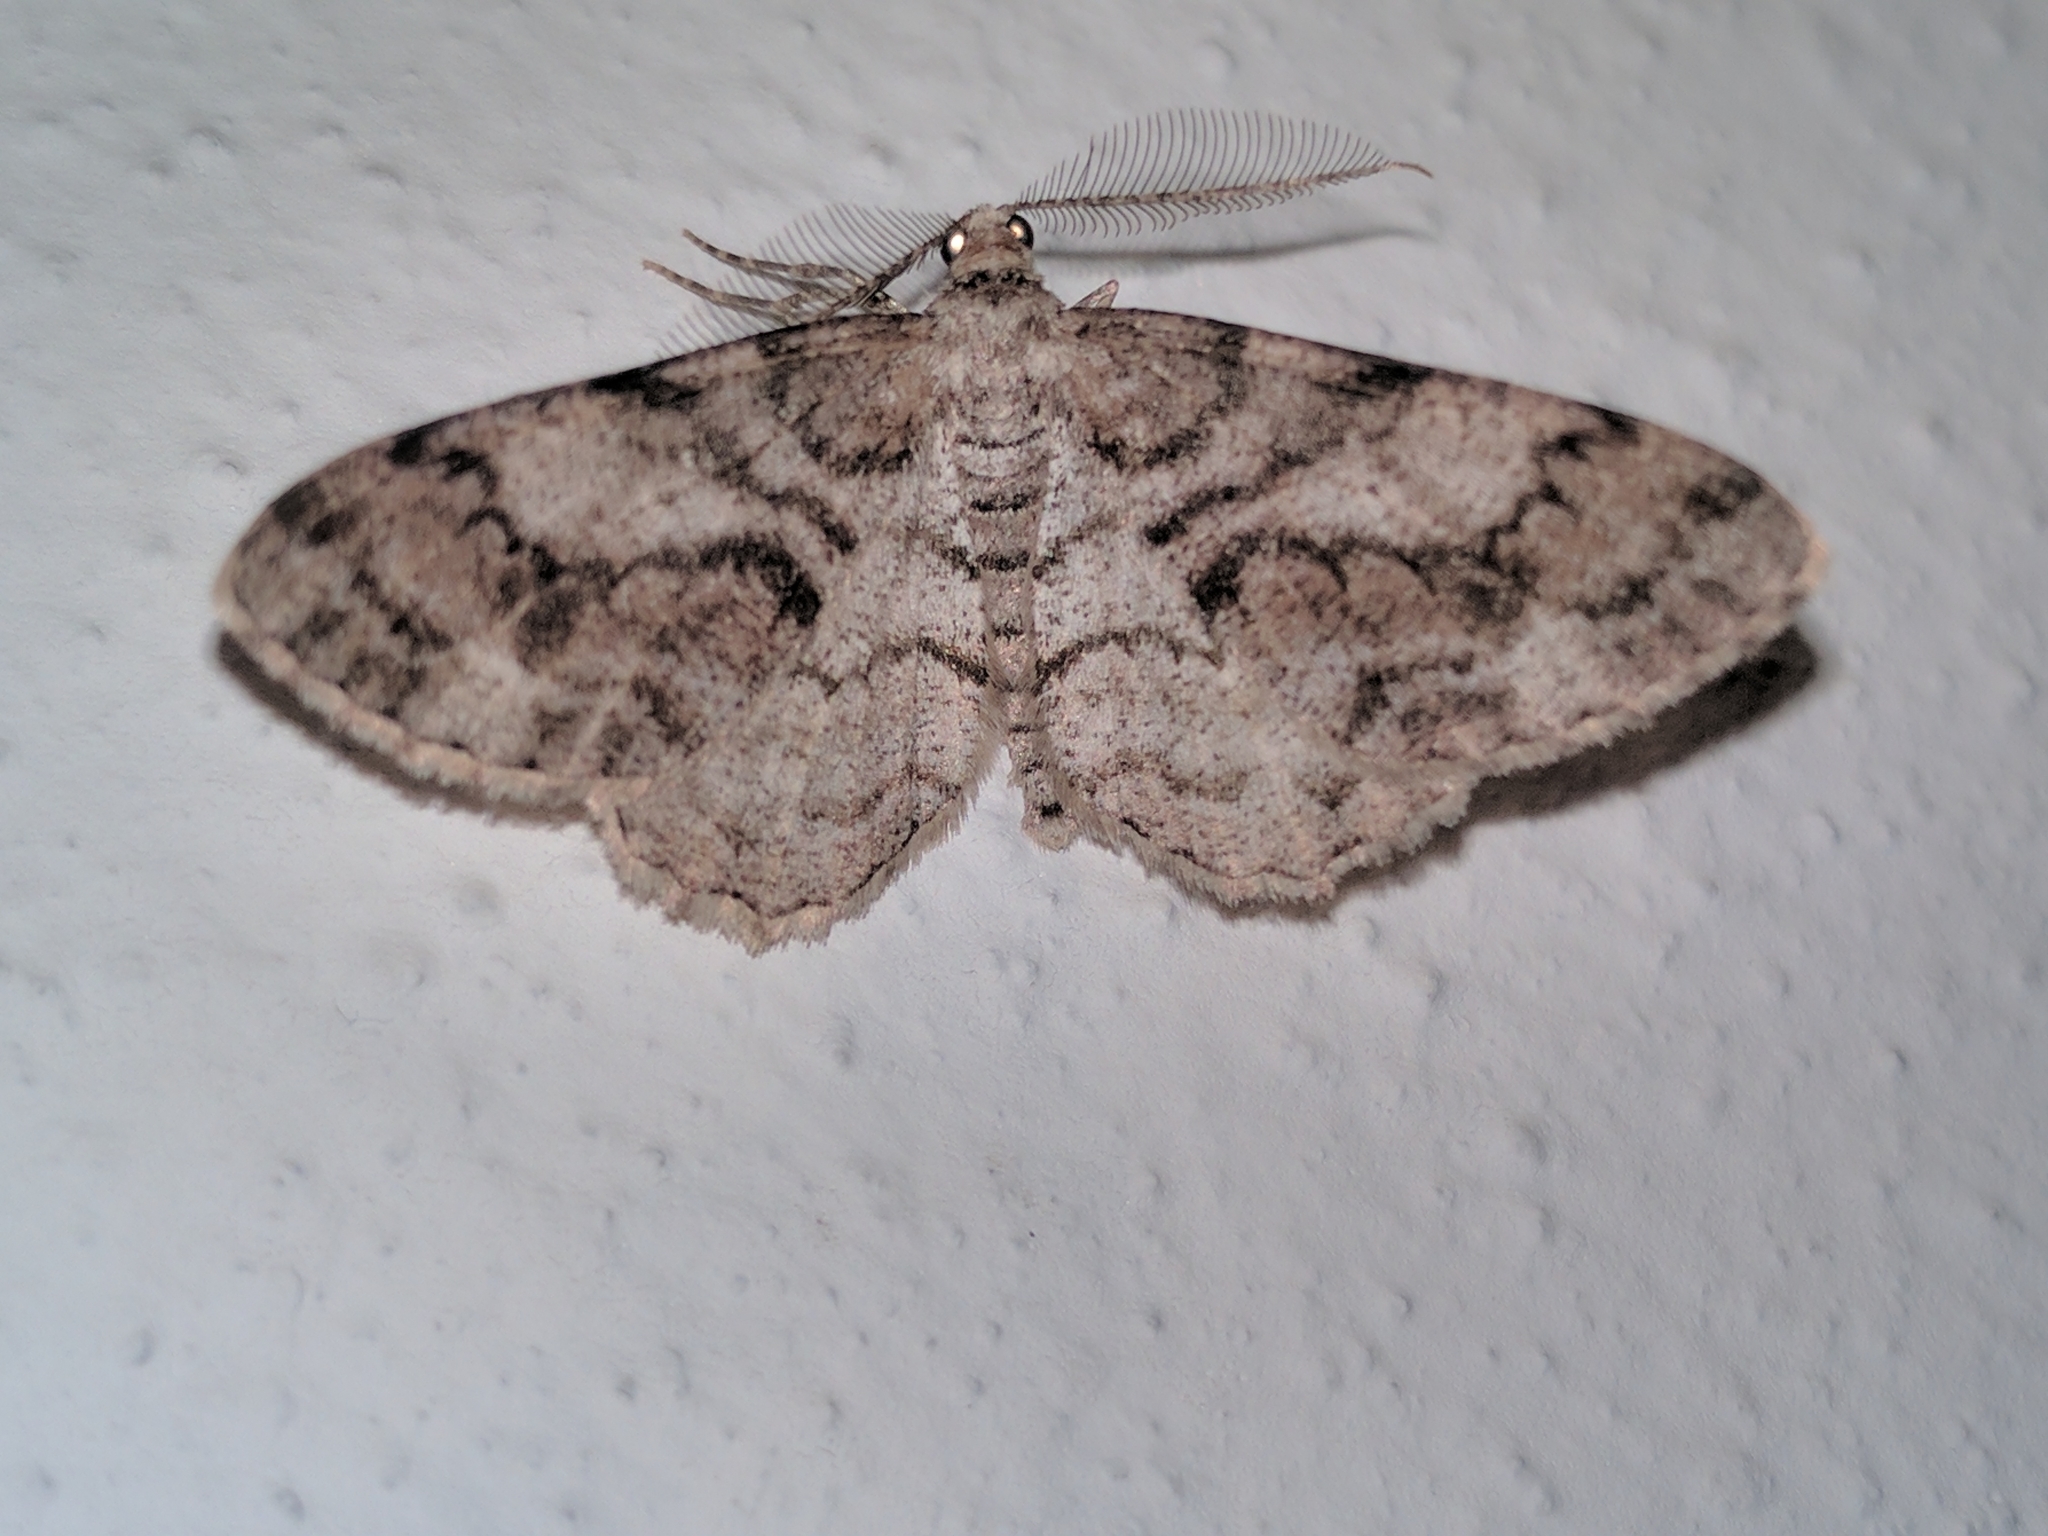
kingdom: Animalia
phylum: Arthropoda
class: Insecta
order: Lepidoptera
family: Geometridae
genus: Peribatodes
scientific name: Peribatodes secundaria
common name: Feathered beauty
